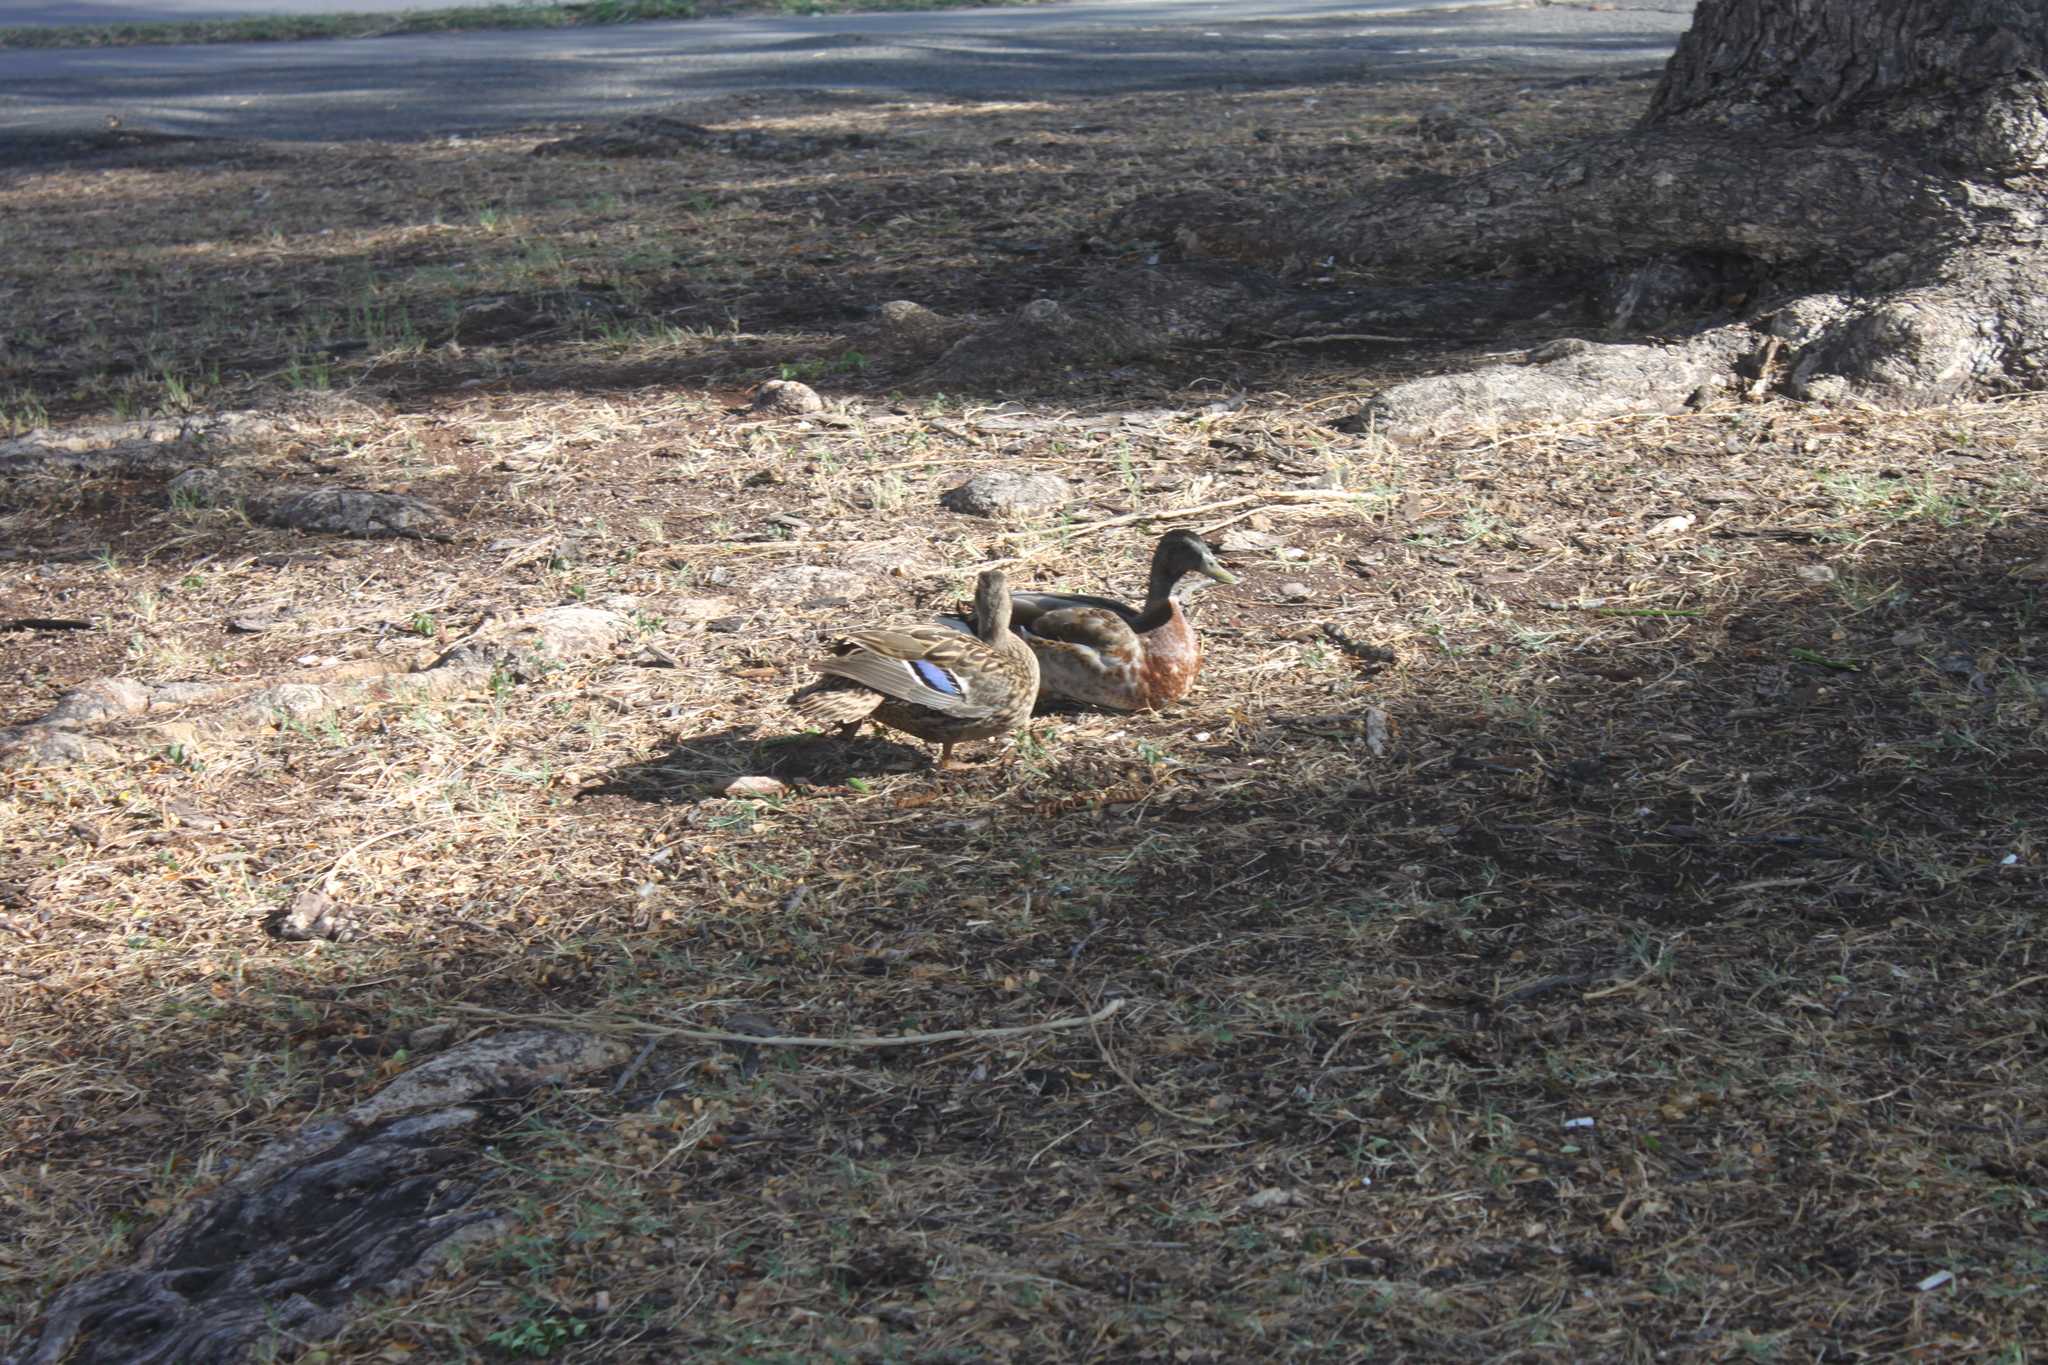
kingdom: Animalia
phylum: Chordata
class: Aves
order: Anseriformes
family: Anatidae
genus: Anas
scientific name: Anas
